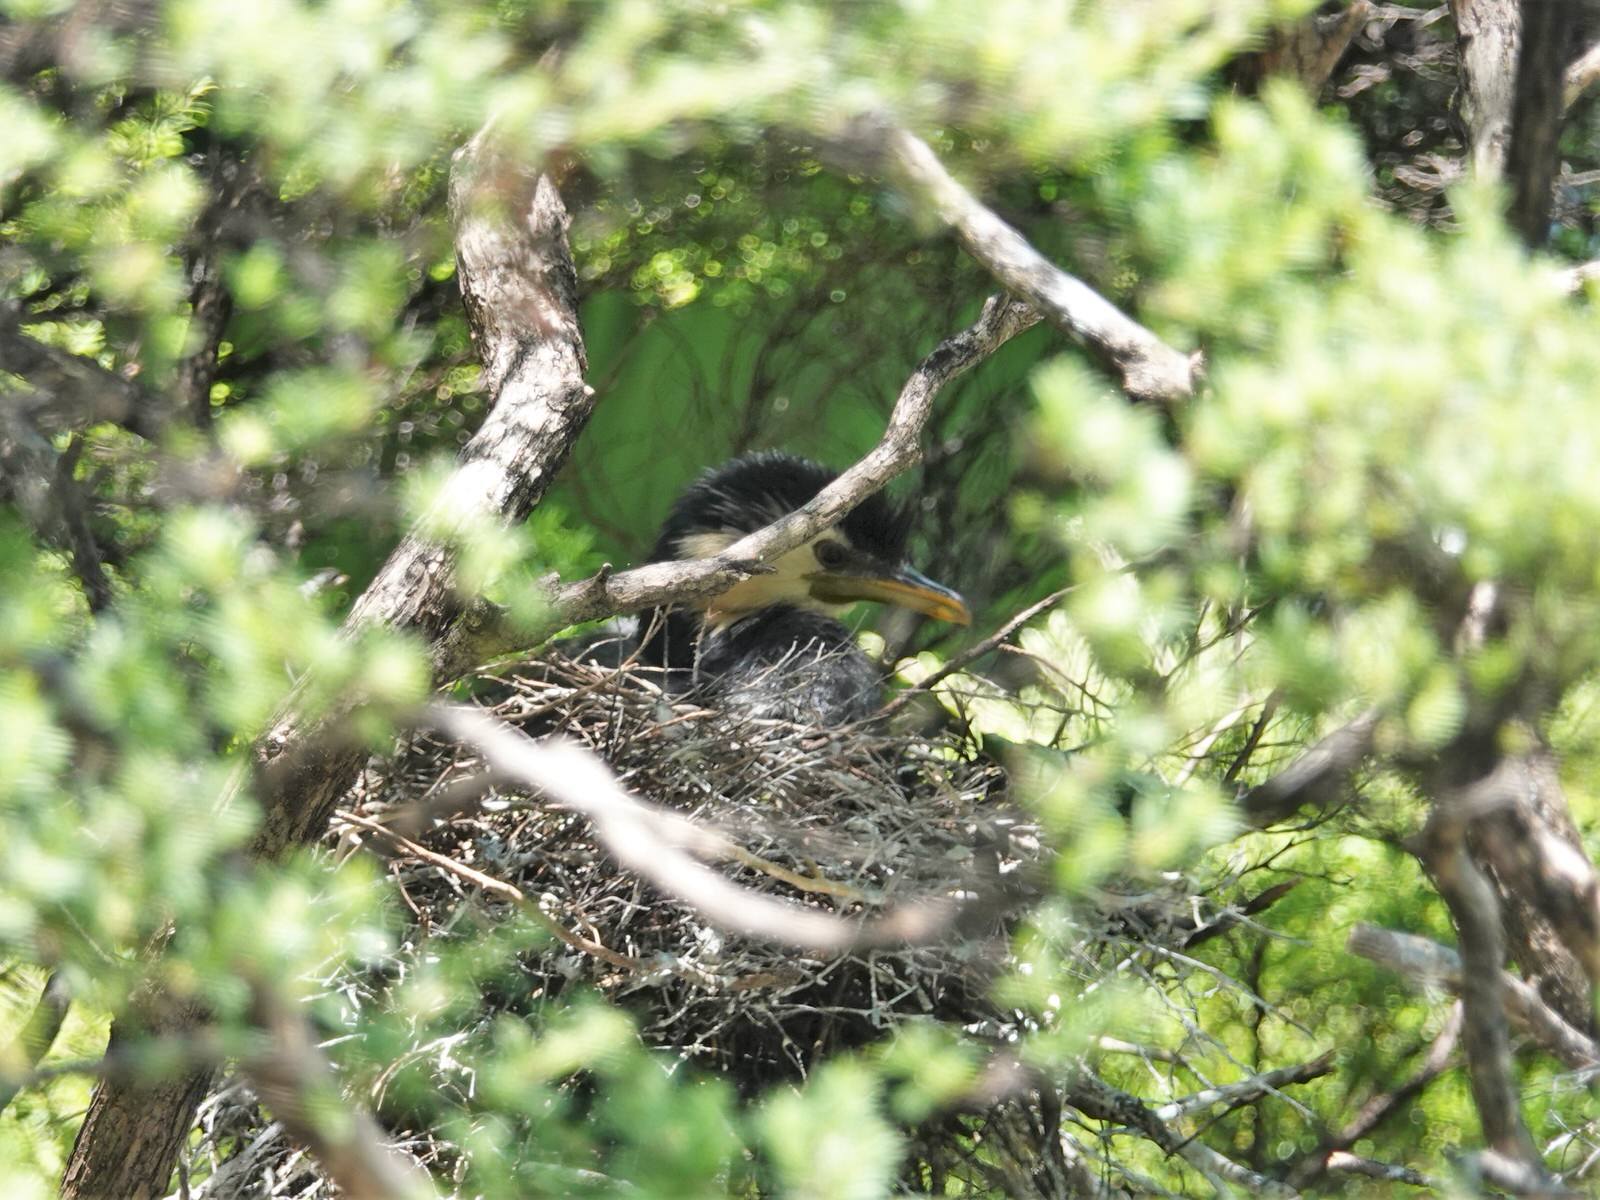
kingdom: Animalia
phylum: Chordata
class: Aves
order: Suliformes
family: Phalacrocoracidae
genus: Microcarbo
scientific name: Microcarbo melanoleucos
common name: Little pied cormorant
